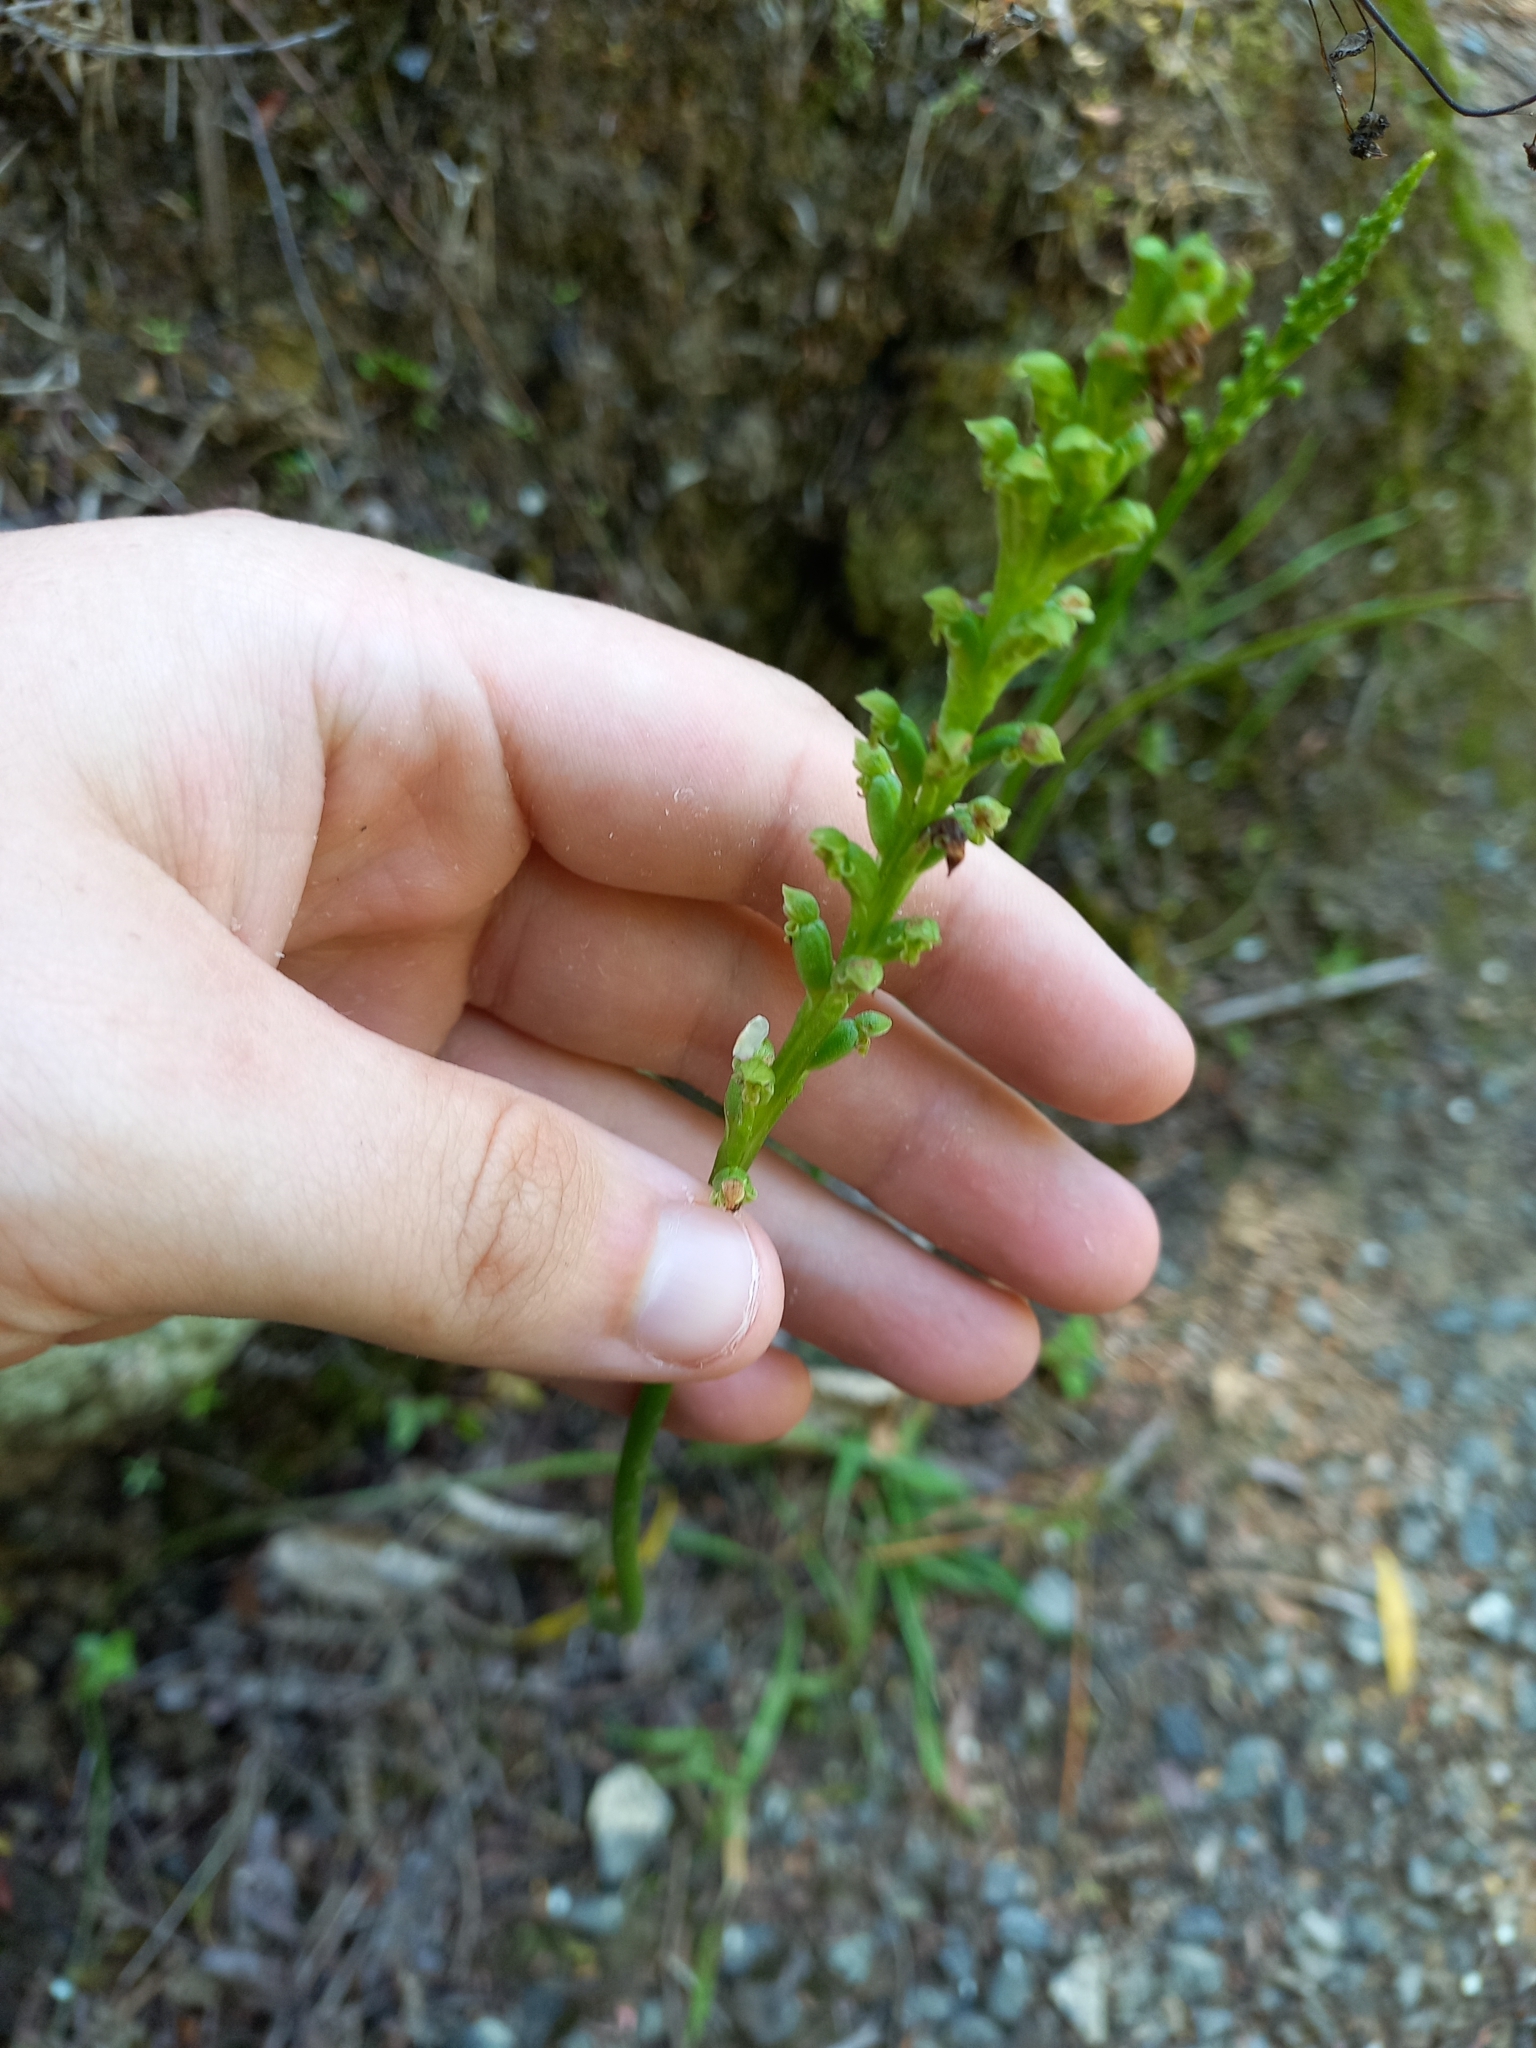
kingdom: Plantae
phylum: Tracheophyta
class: Liliopsida
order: Asparagales
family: Orchidaceae
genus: Microtis
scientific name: Microtis unifolia
